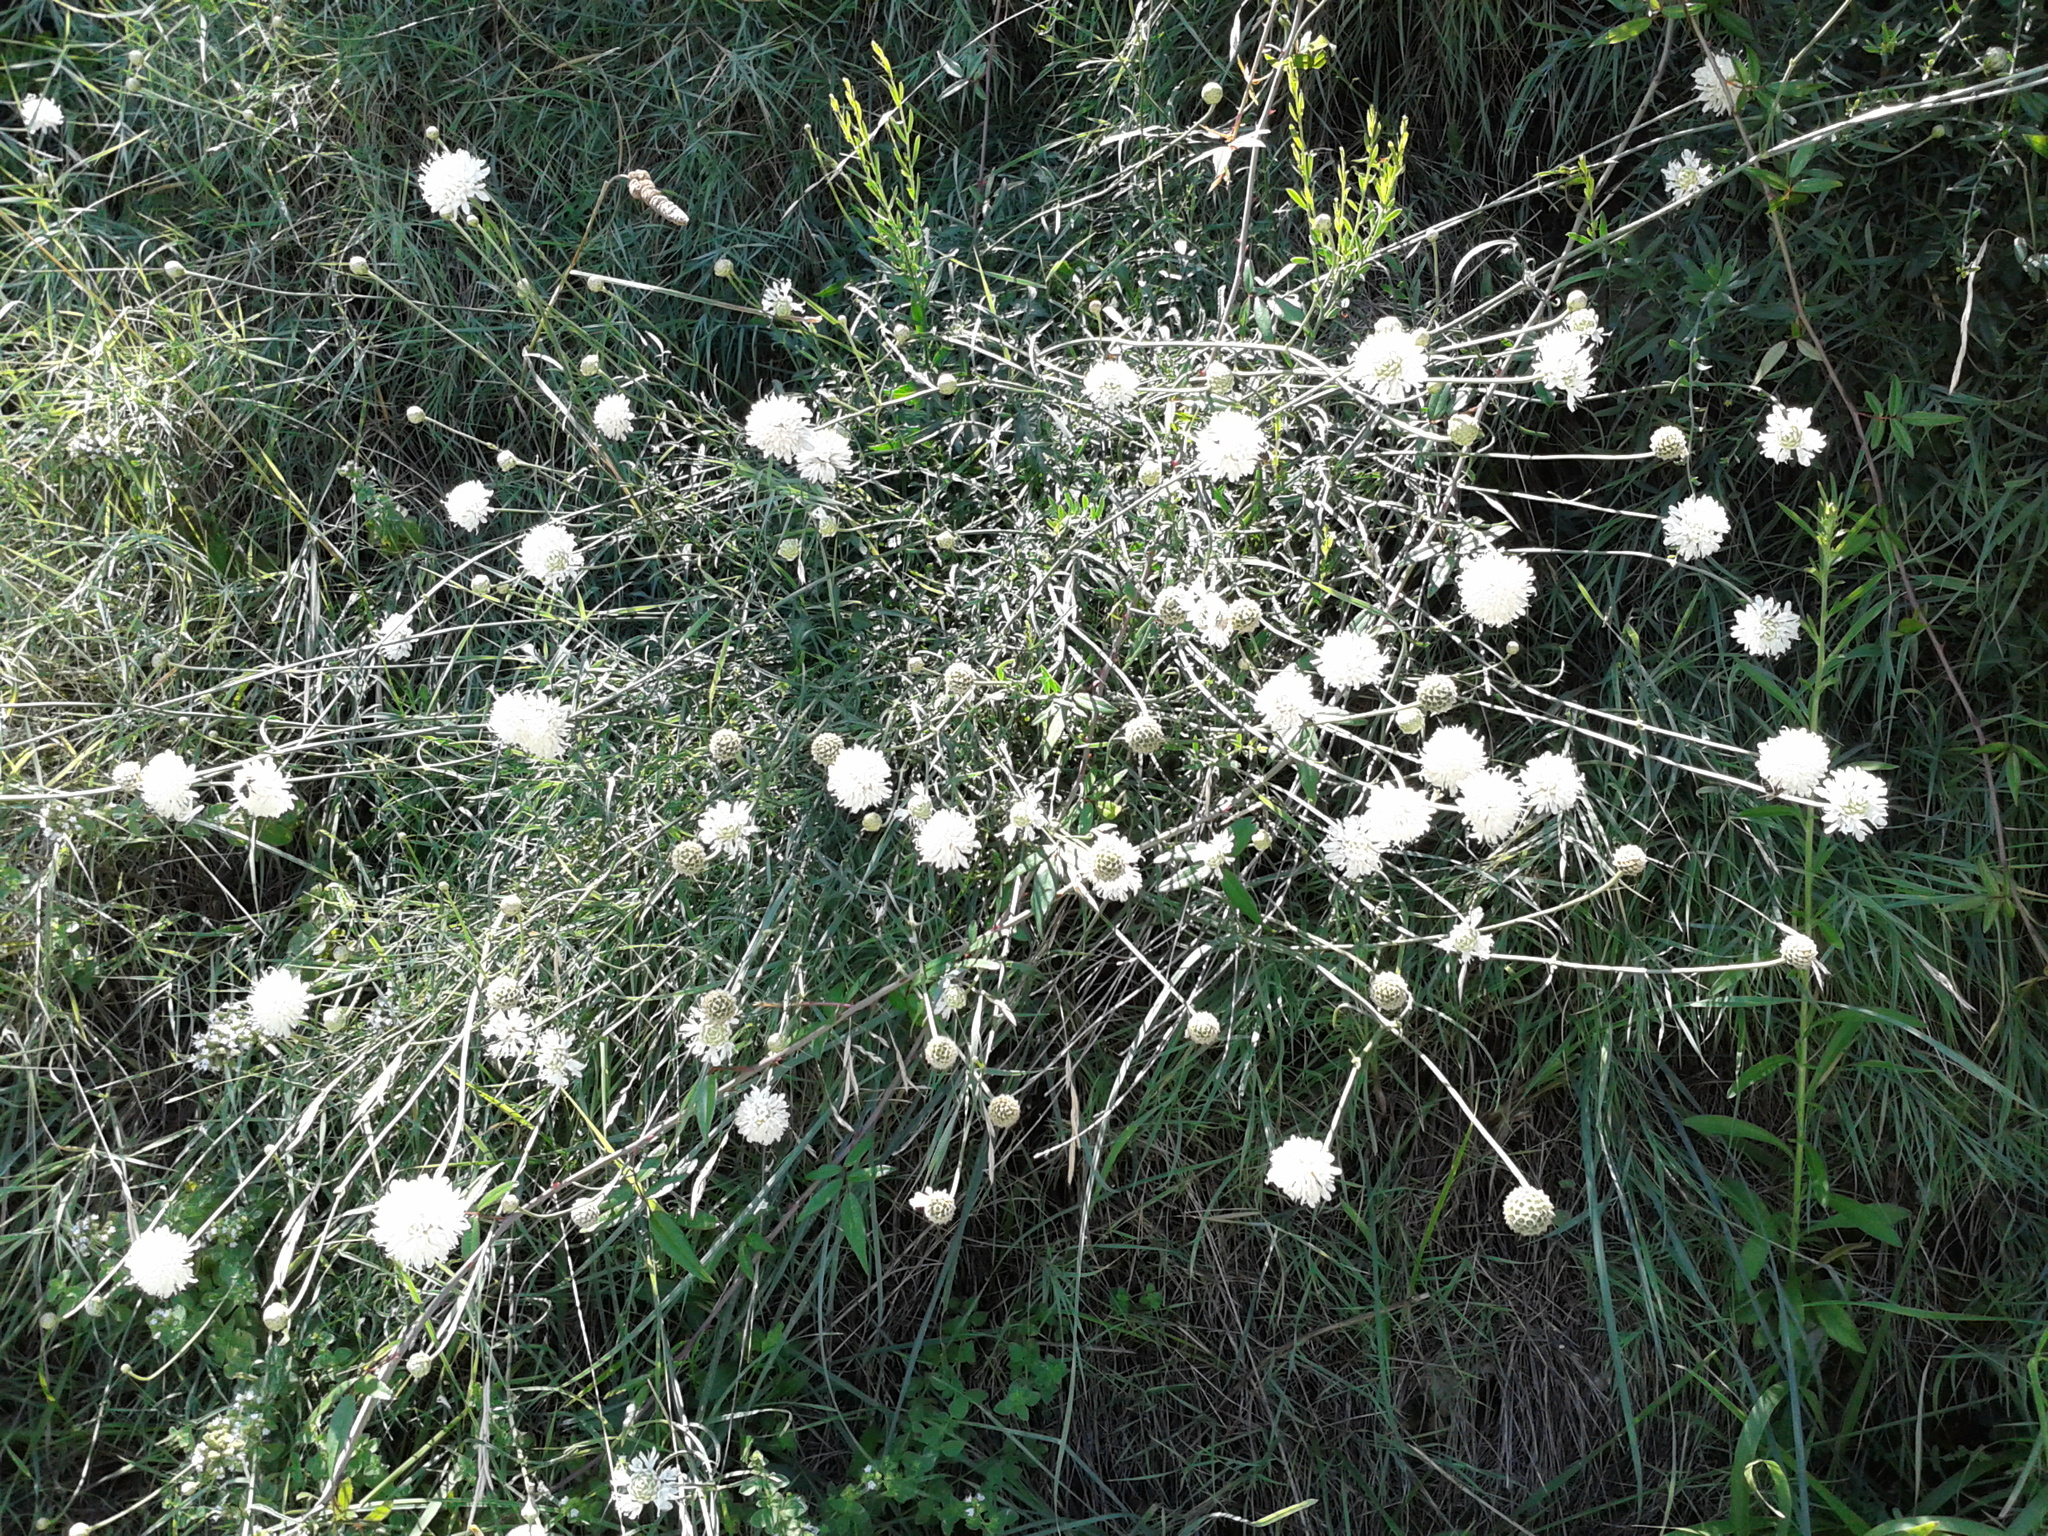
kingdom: Plantae
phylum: Tracheophyta
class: Magnoliopsida
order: Dipsacales
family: Caprifoliaceae
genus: Cephalaria
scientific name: Cephalaria leucantha
